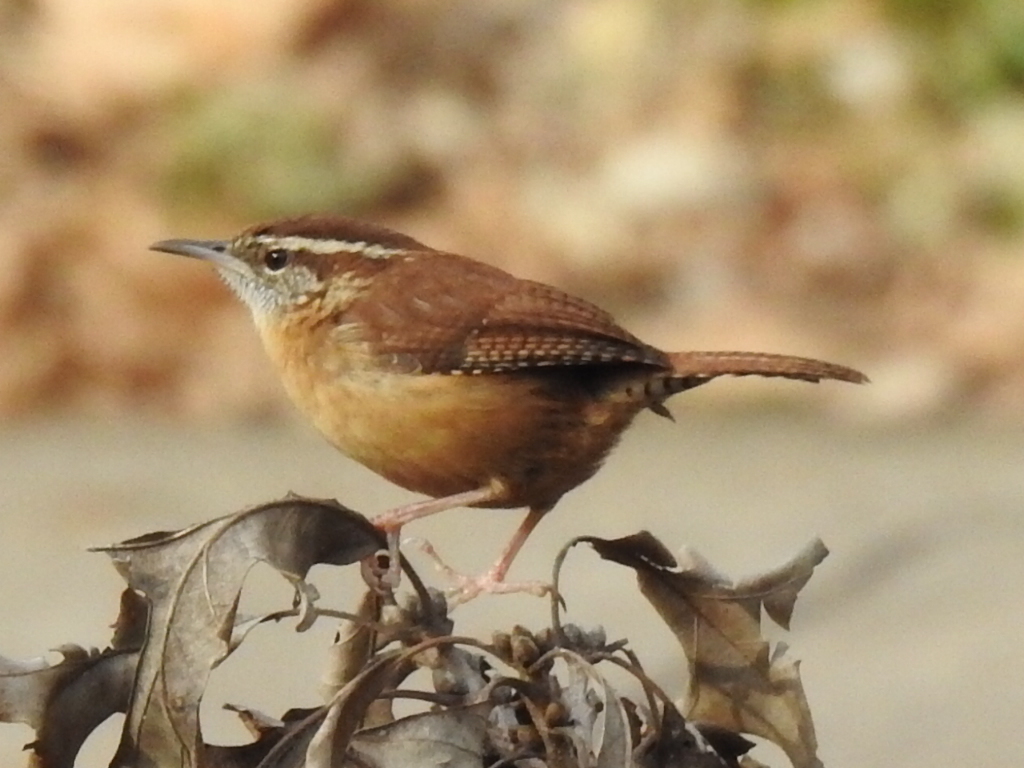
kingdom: Animalia
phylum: Chordata
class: Aves
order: Passeriformes
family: Troglodytidae
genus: Thryothorus
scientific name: Thryothorus ludovicianus
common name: Carolina wren
